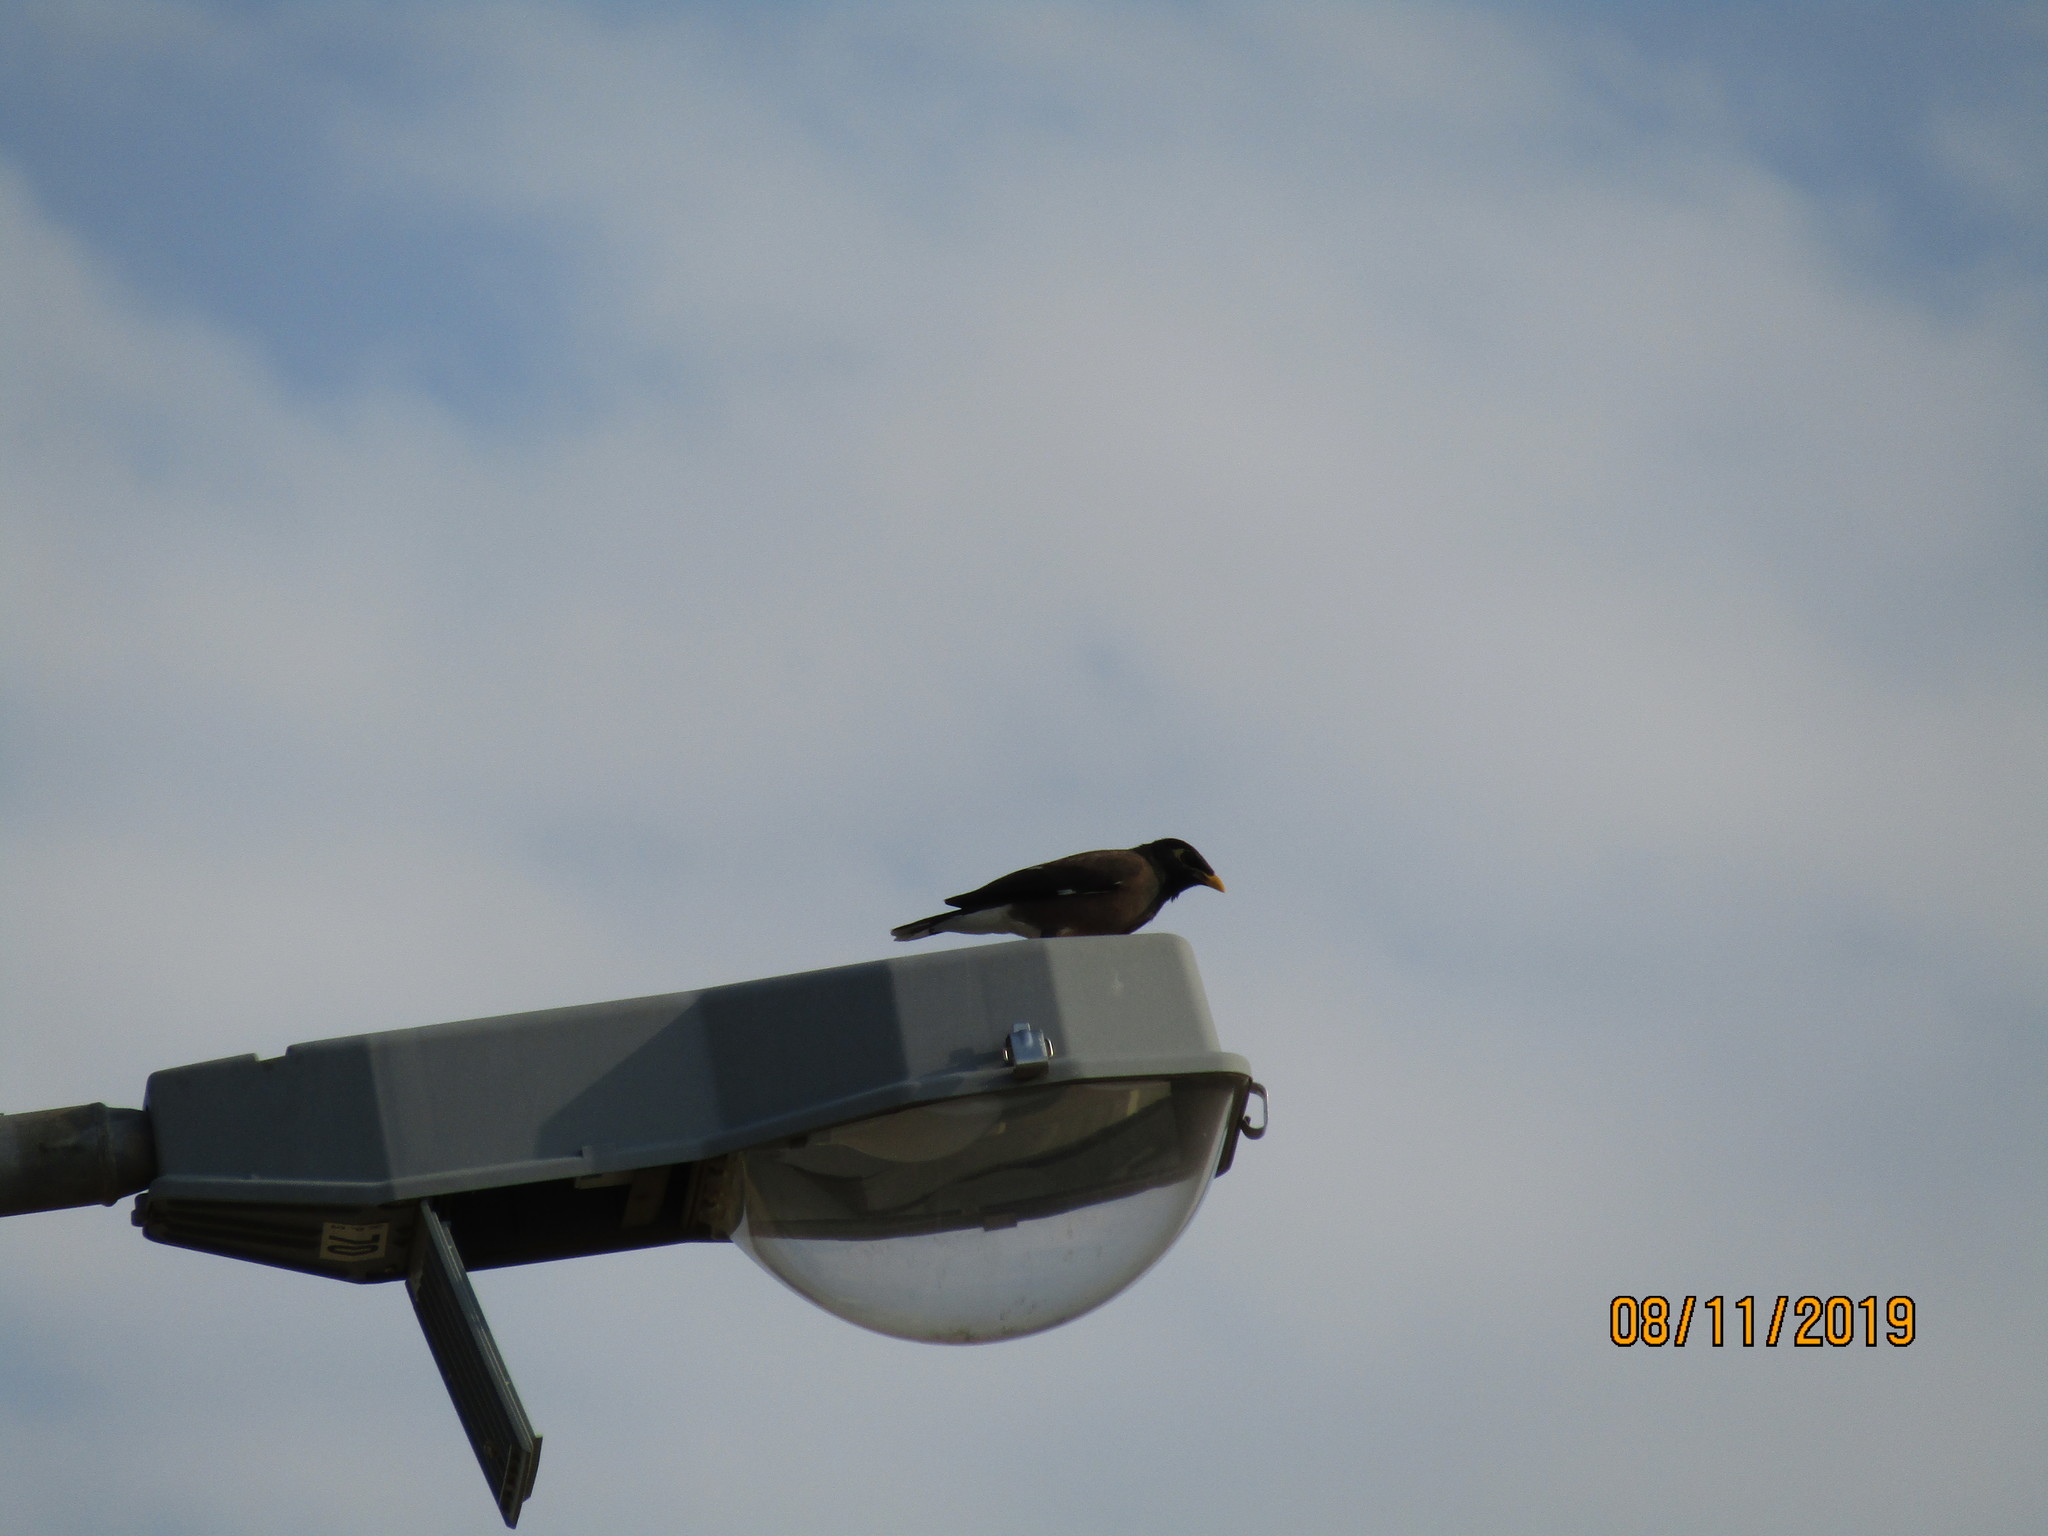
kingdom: Animalia
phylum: Chordata
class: Aves
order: Passeriformes
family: Sturnidae
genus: Acridotheres
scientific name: Acridotheres tristis
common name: Common myna
